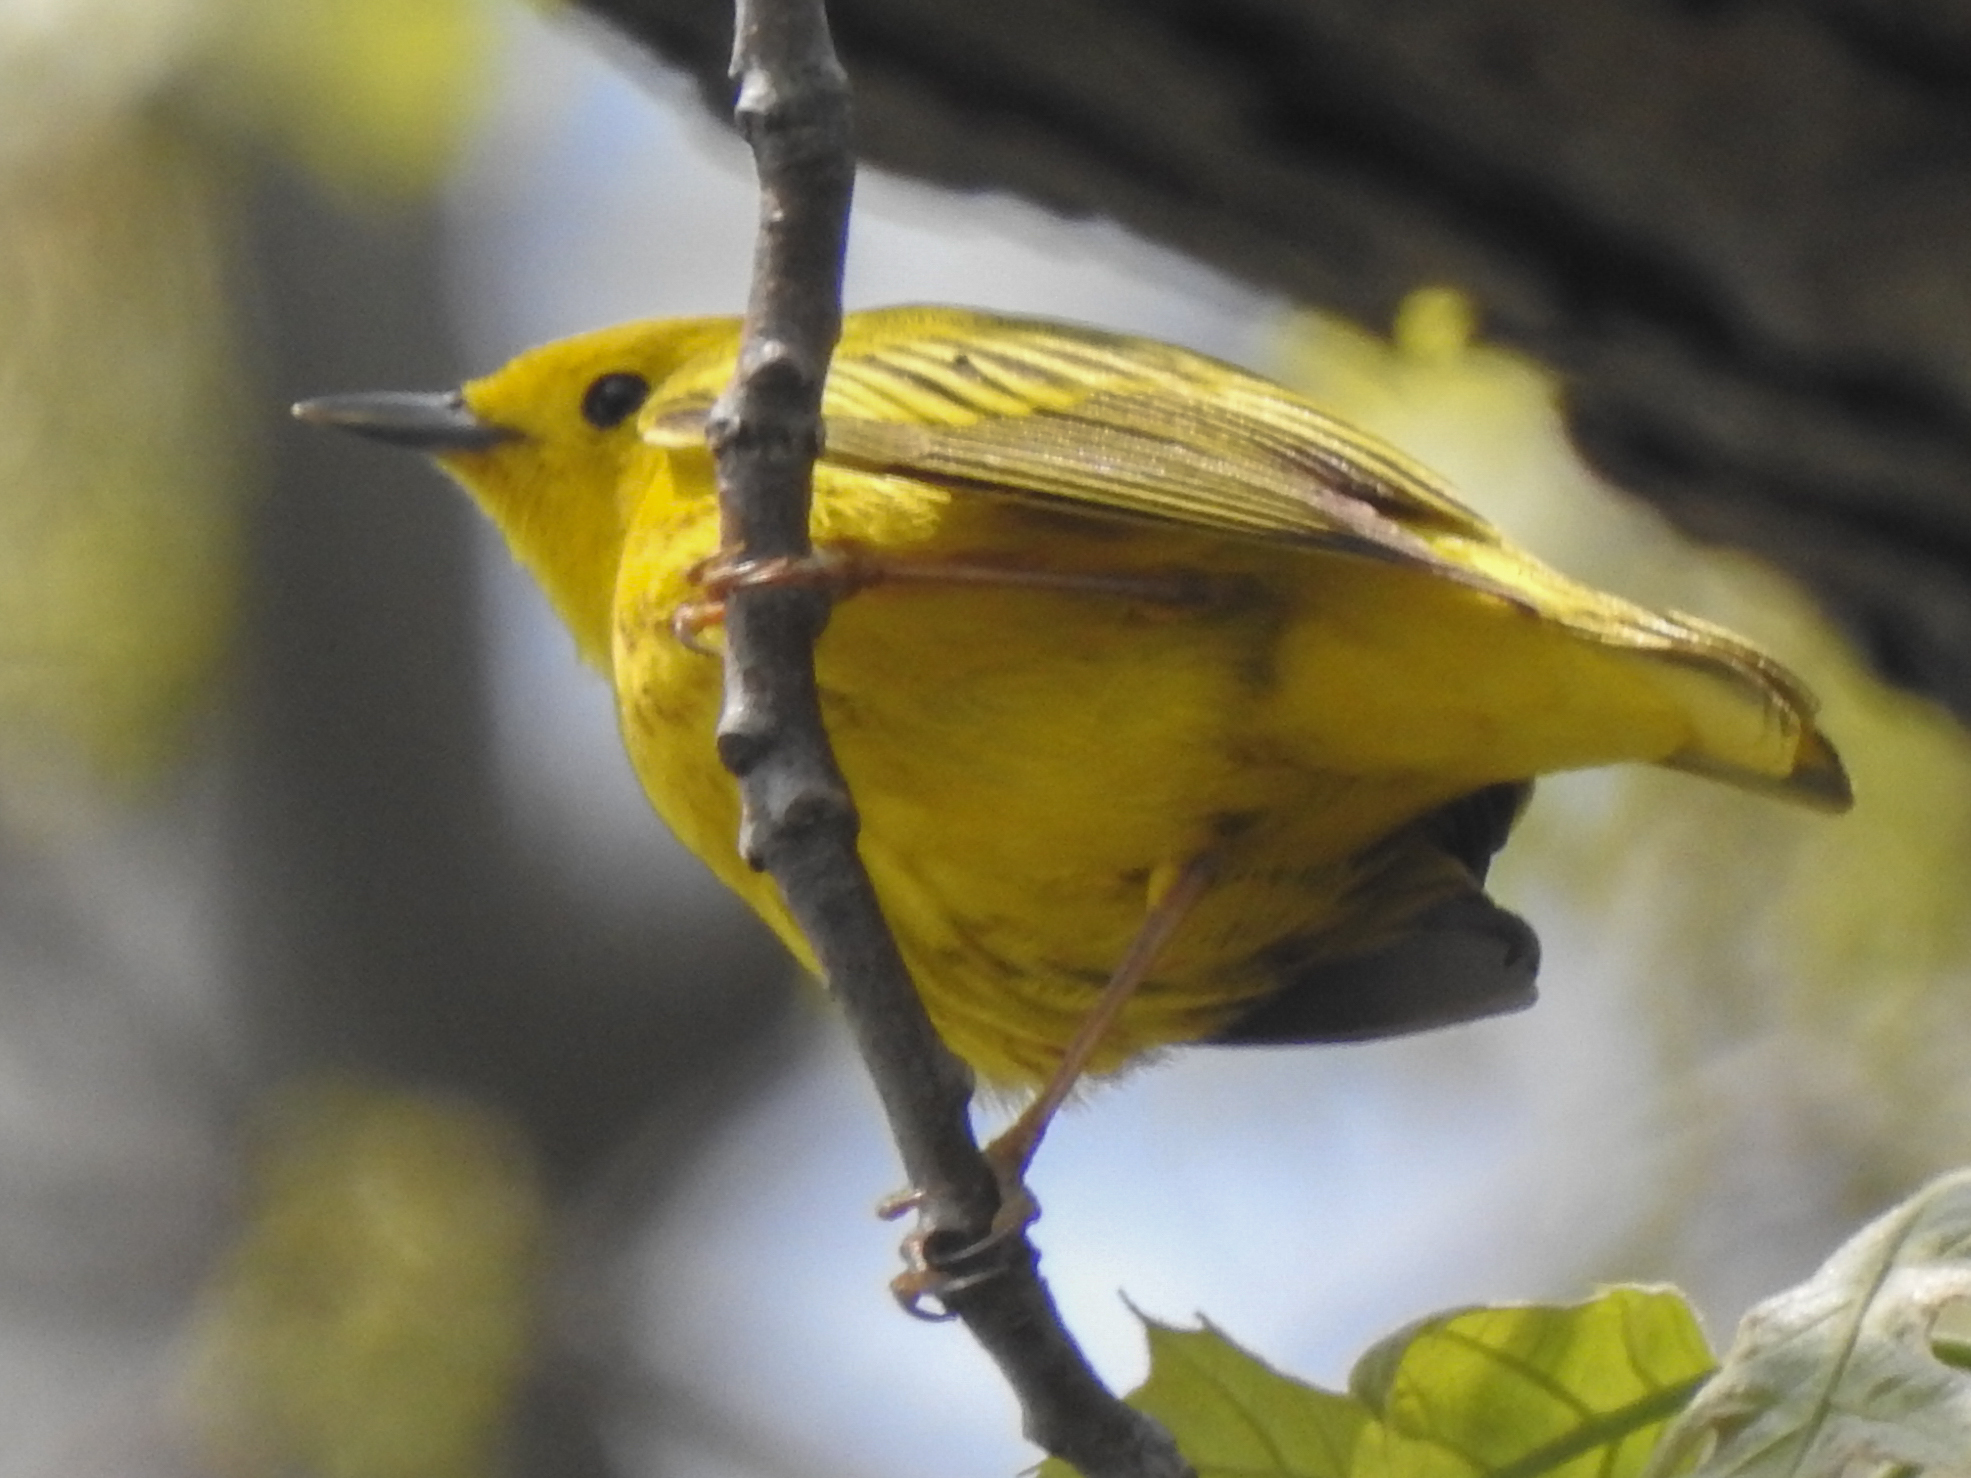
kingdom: Animalia
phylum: Chordata
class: Aves
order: Passeriformes
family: Parulidae
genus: Setophaga
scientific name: Setophaga petechia
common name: Yellow warbler
